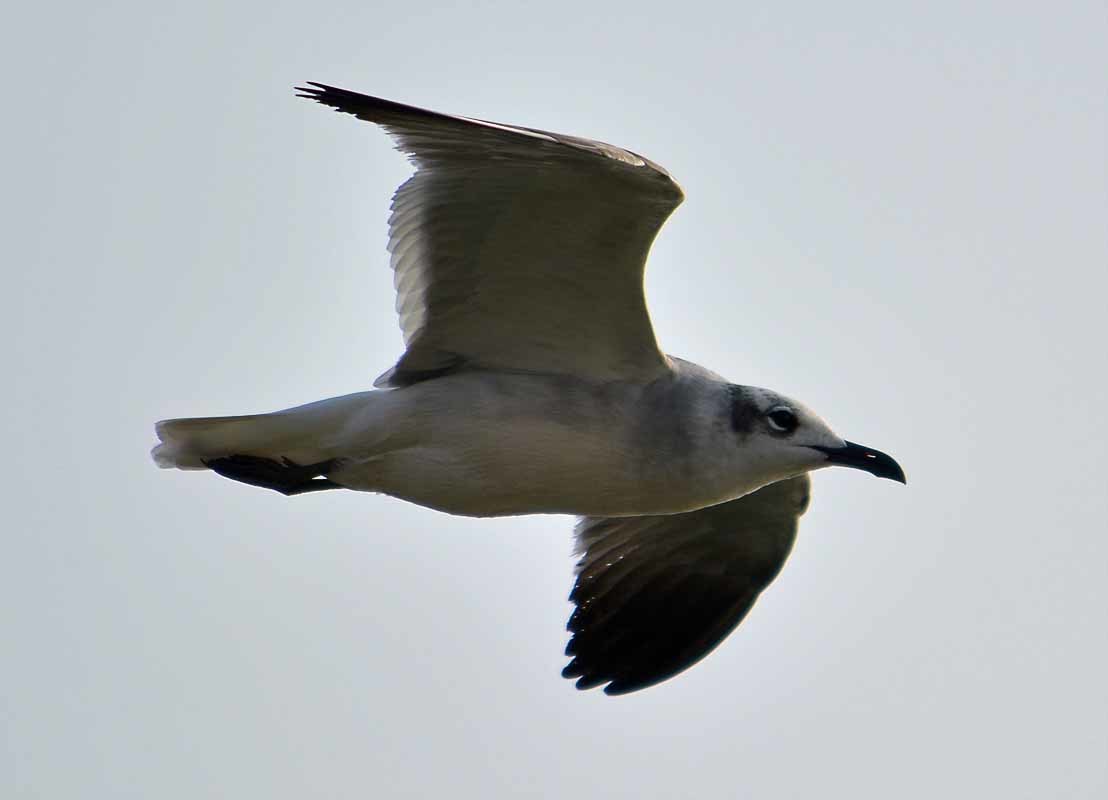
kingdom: Animalia
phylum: Chordata
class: Aves
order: Charadriiformes
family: Laridae
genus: Leucophaeus
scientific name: Leucophaeus atricilla
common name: Laughing gull
